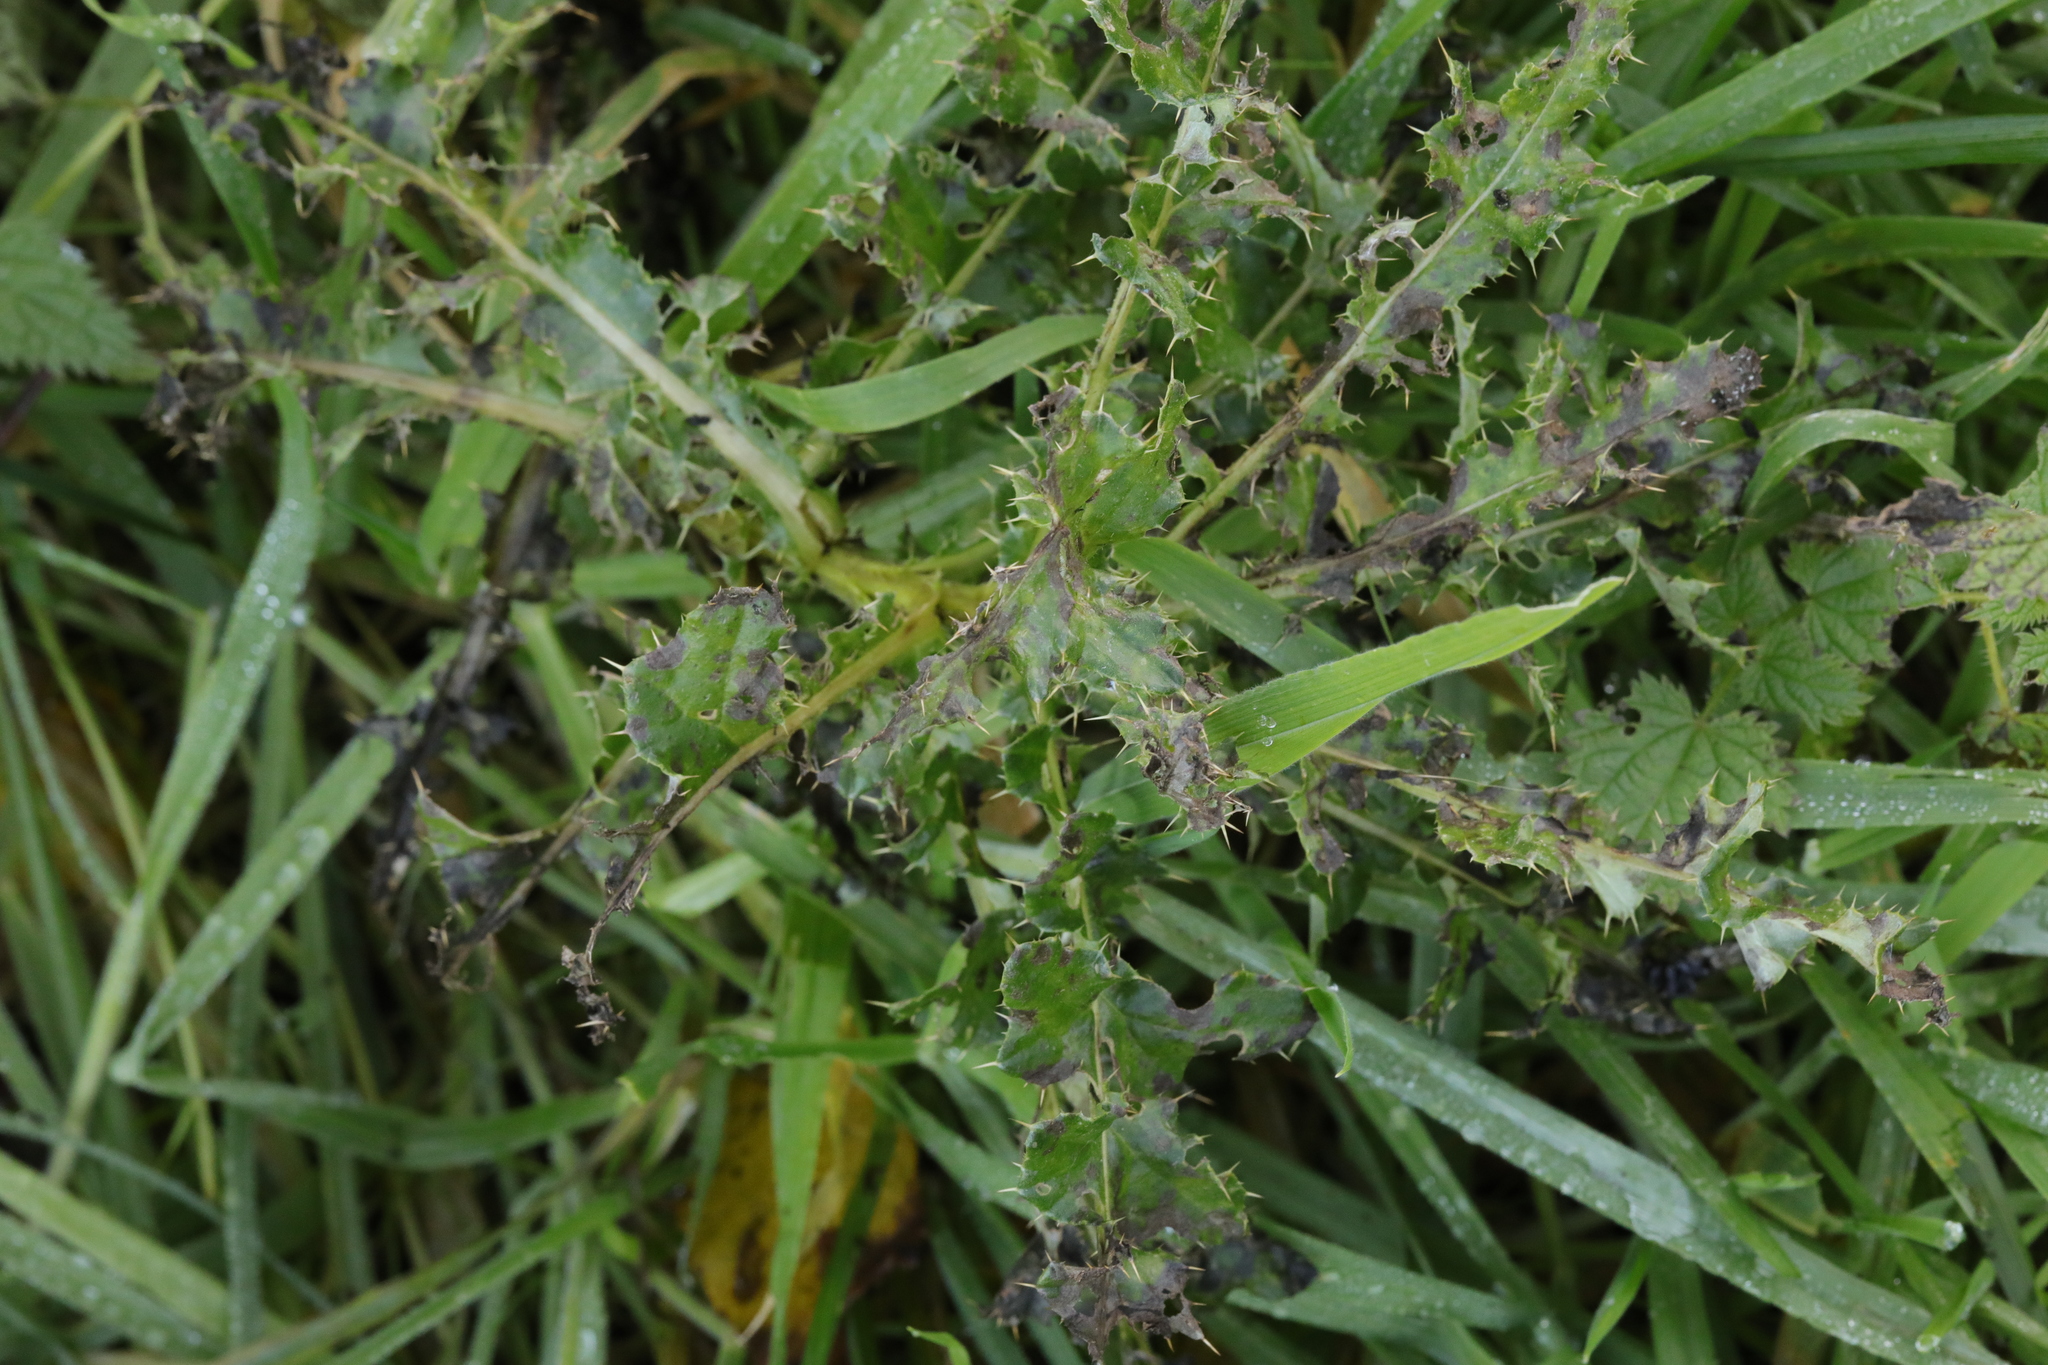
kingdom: Plantae
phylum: Tracheophyta
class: Magnoliopsida
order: Asterales
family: Asteraceae
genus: Cirsium
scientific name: Cirsium arvense
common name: Creeping thistle
